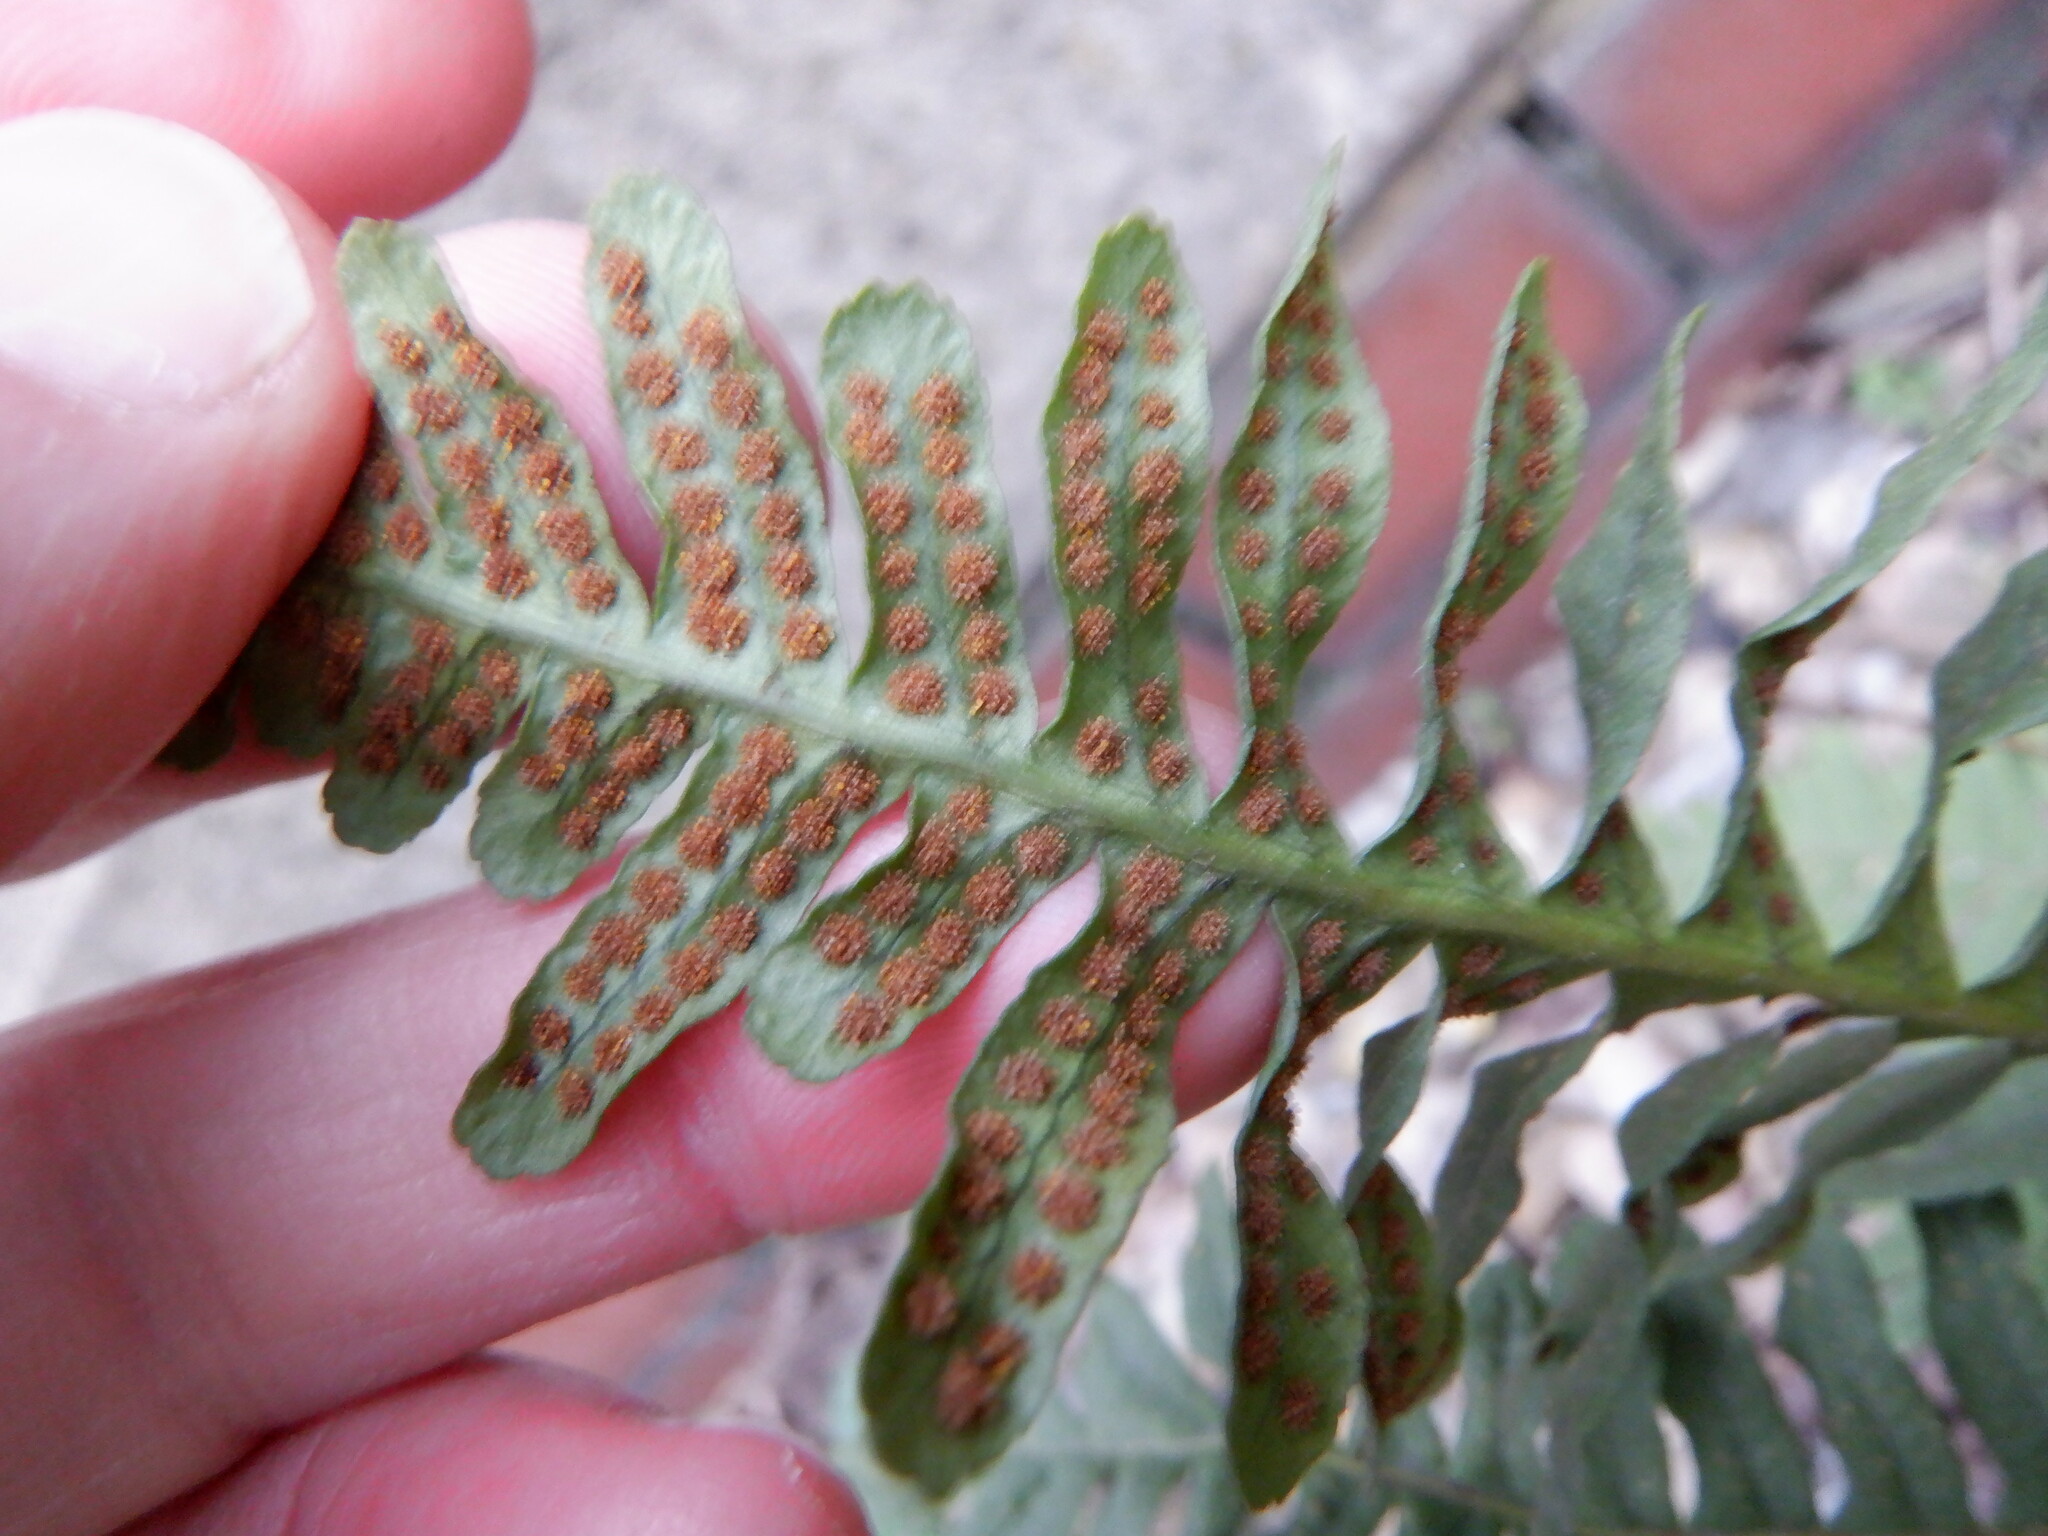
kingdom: Plantae
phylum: Tracheophyta
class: Polypodiopsida
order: Polypodiales
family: Polypodiaceae
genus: Polypodium
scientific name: Polypodium vulgare
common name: Common polypody
